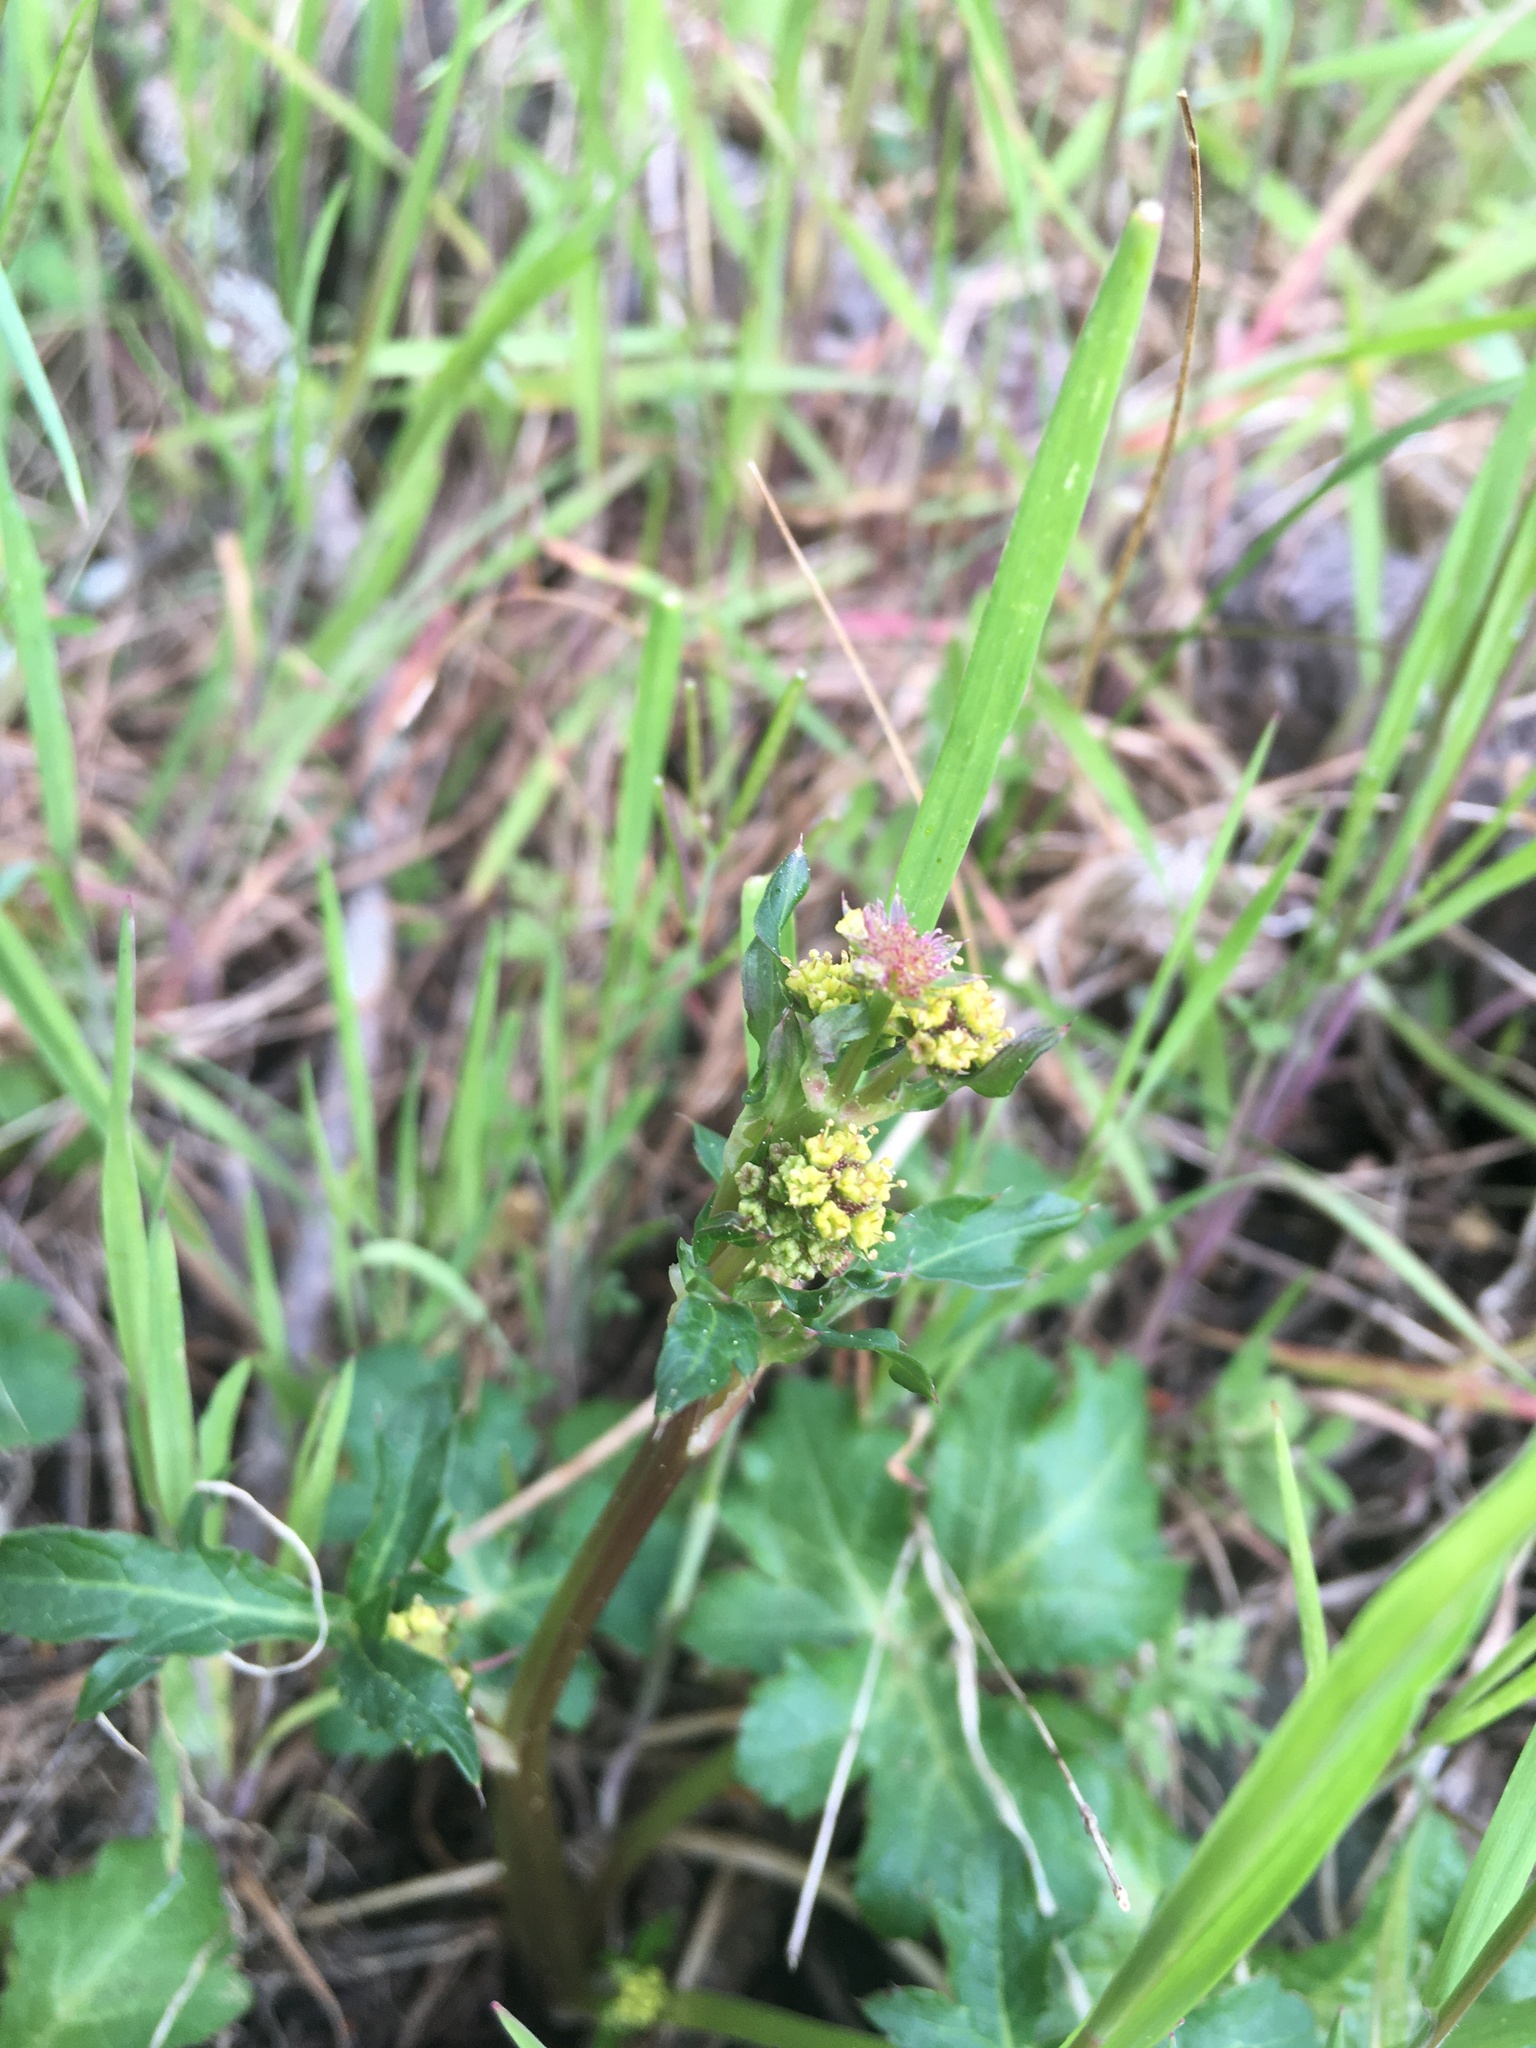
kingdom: Plantae
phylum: Tracheophyta
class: Magnoliopsida
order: Apiales
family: Apiaceae
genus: Sanicula
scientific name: Sanicula crassicaulis
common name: Western snakeroot
